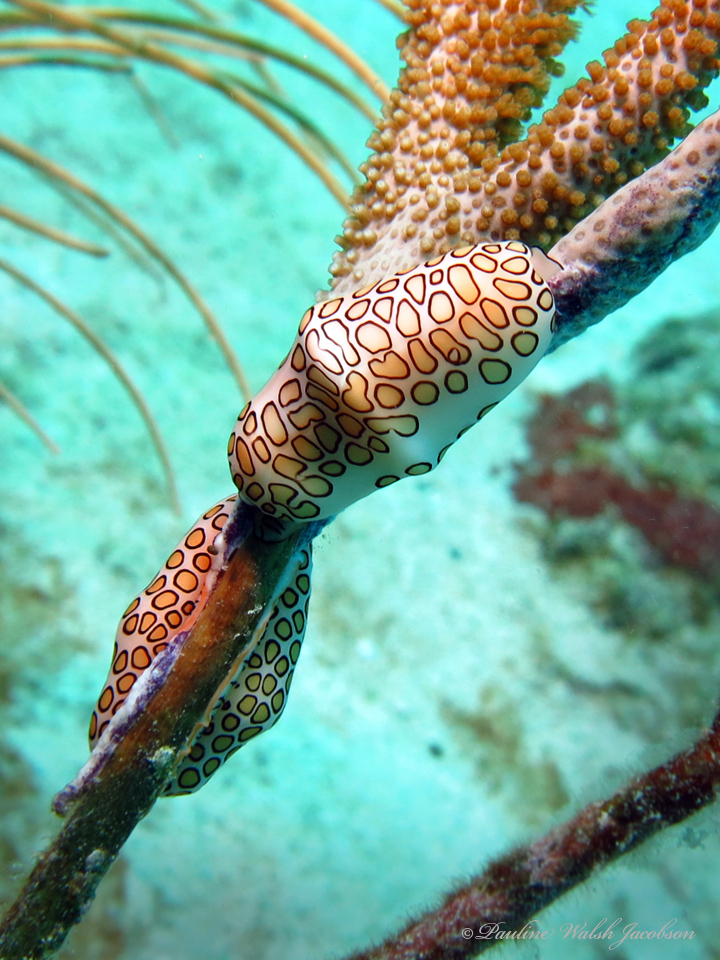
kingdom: Animalia
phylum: Mollusca
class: Gastropoda
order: Littorinimorpha
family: Ovulidae
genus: Cyphoma
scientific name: Cyphoma gibbosum
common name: Flamingo tongue
